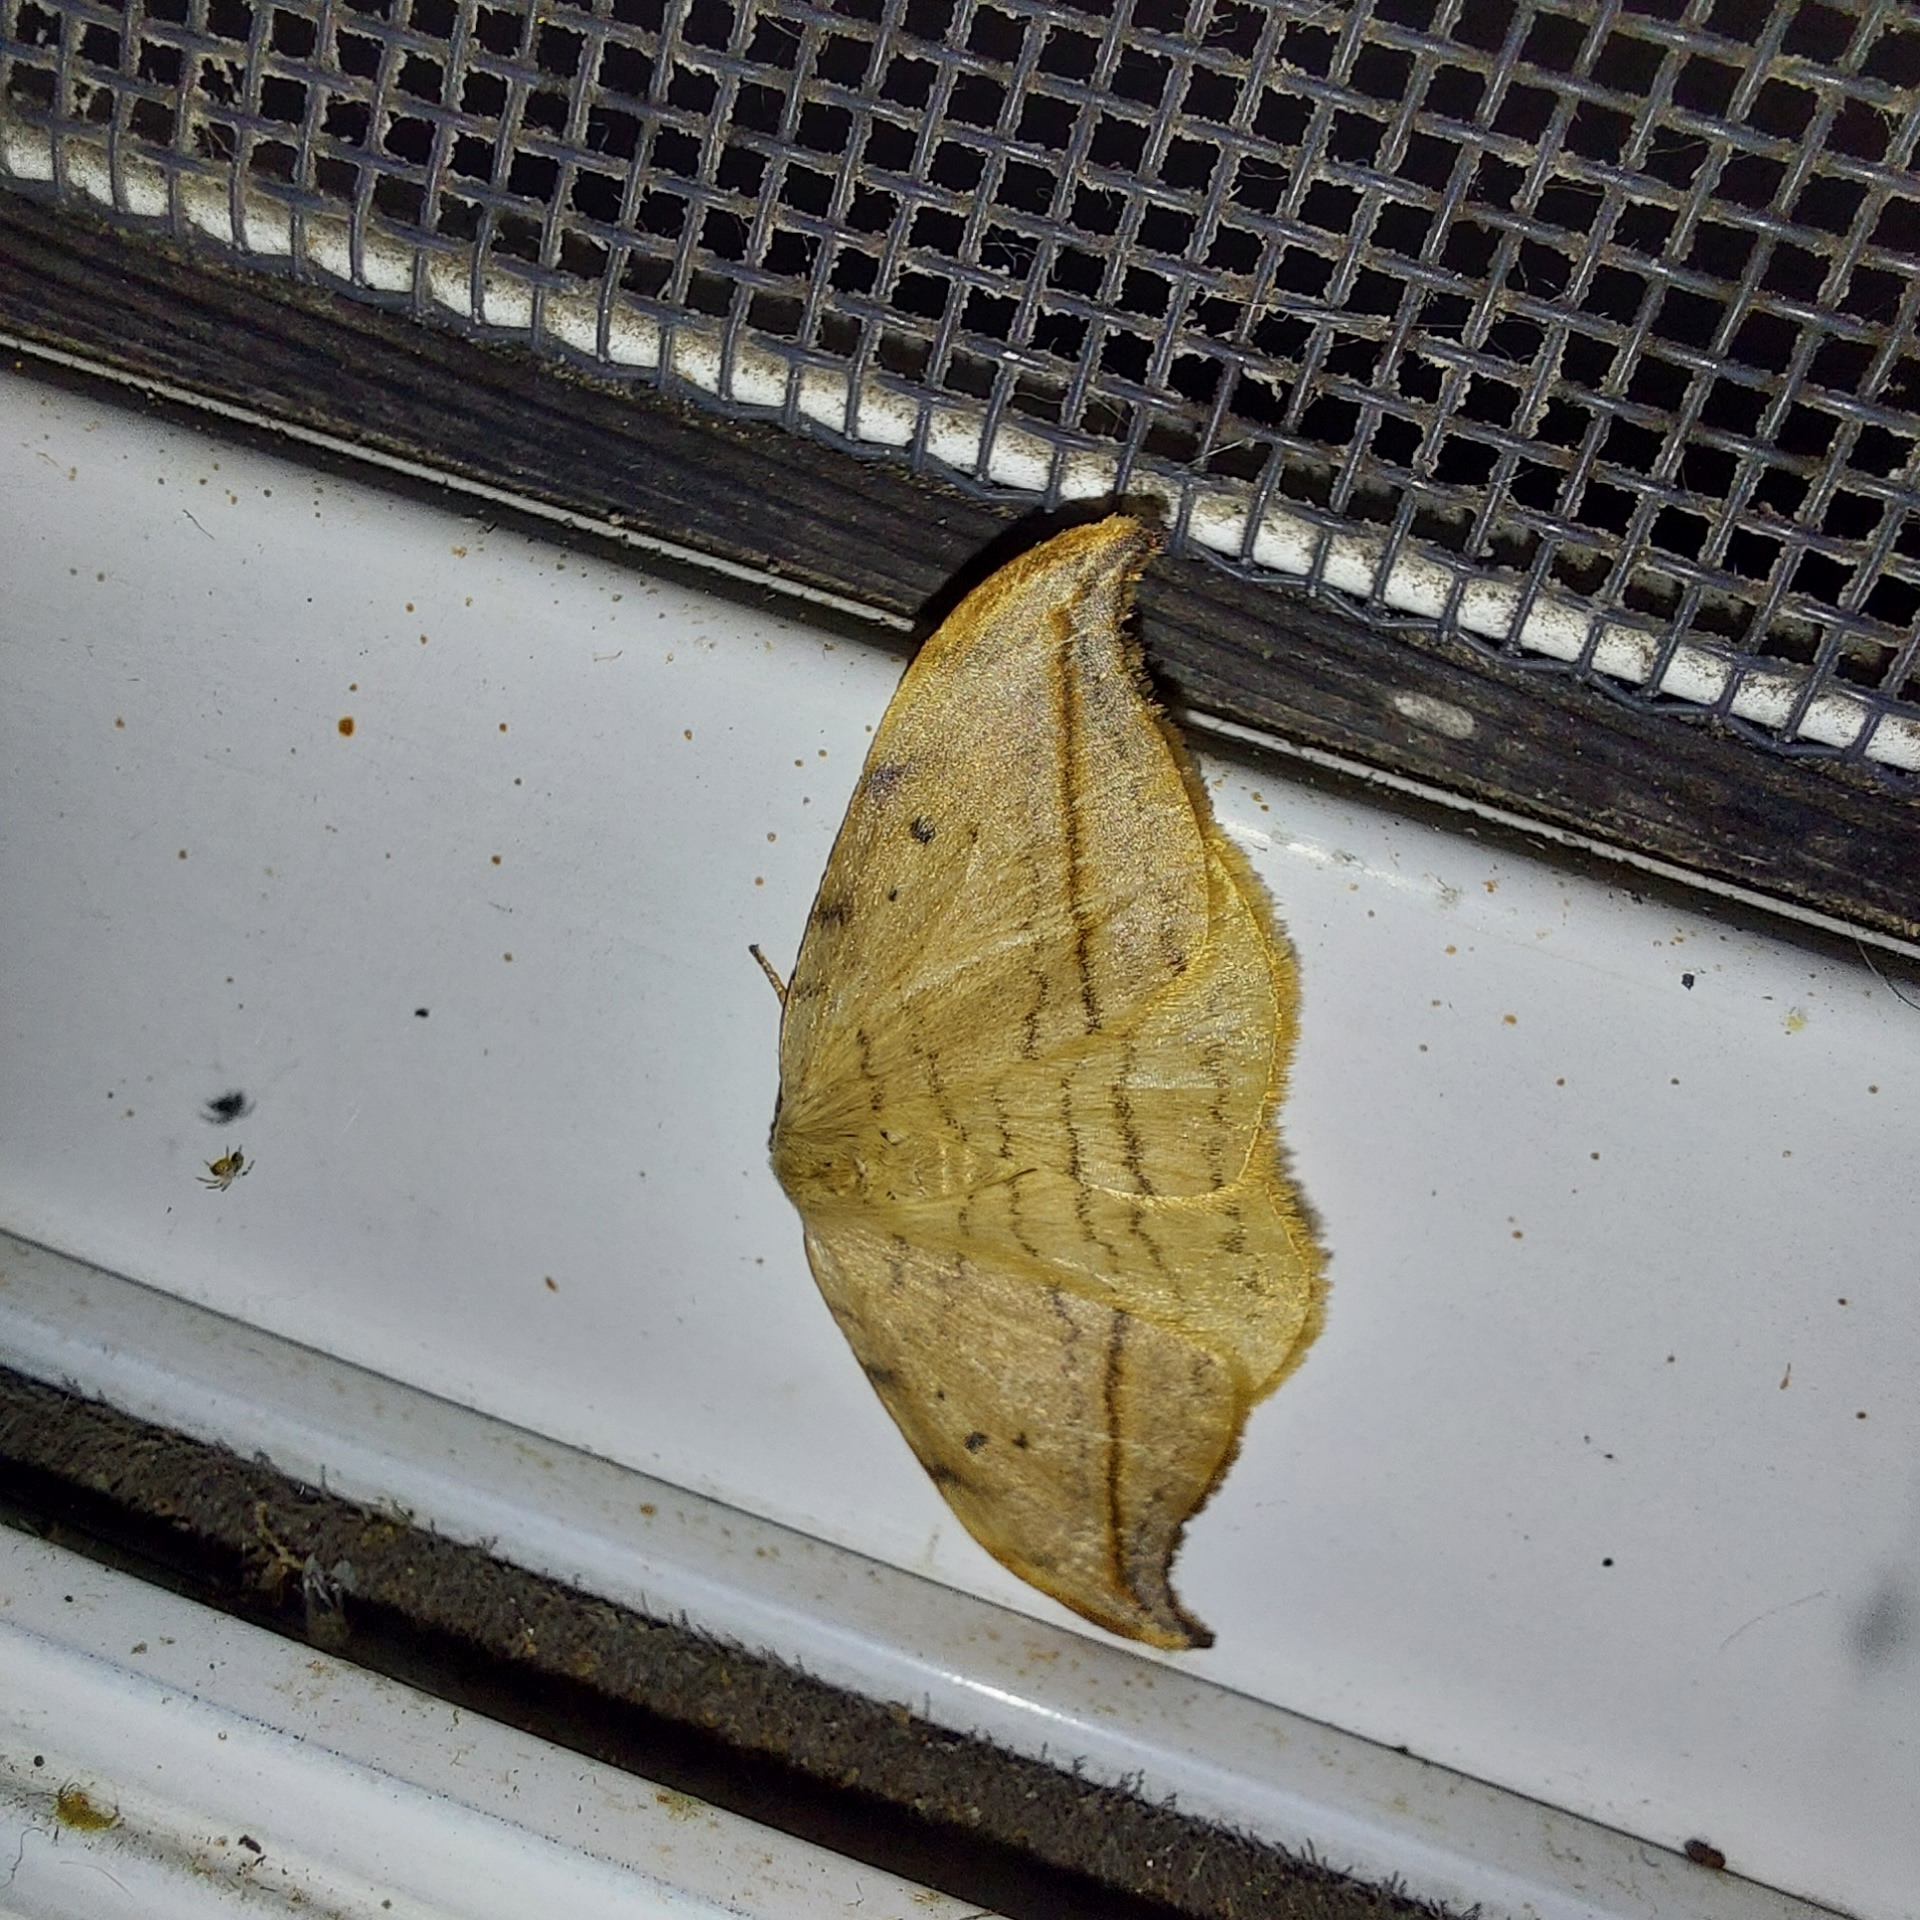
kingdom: Animalia
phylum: Arthropoda
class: Insecta
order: Lepidoptera
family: Drepanidae
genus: Drepana
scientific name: Drepana arcuata
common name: Arched hooktip moth
